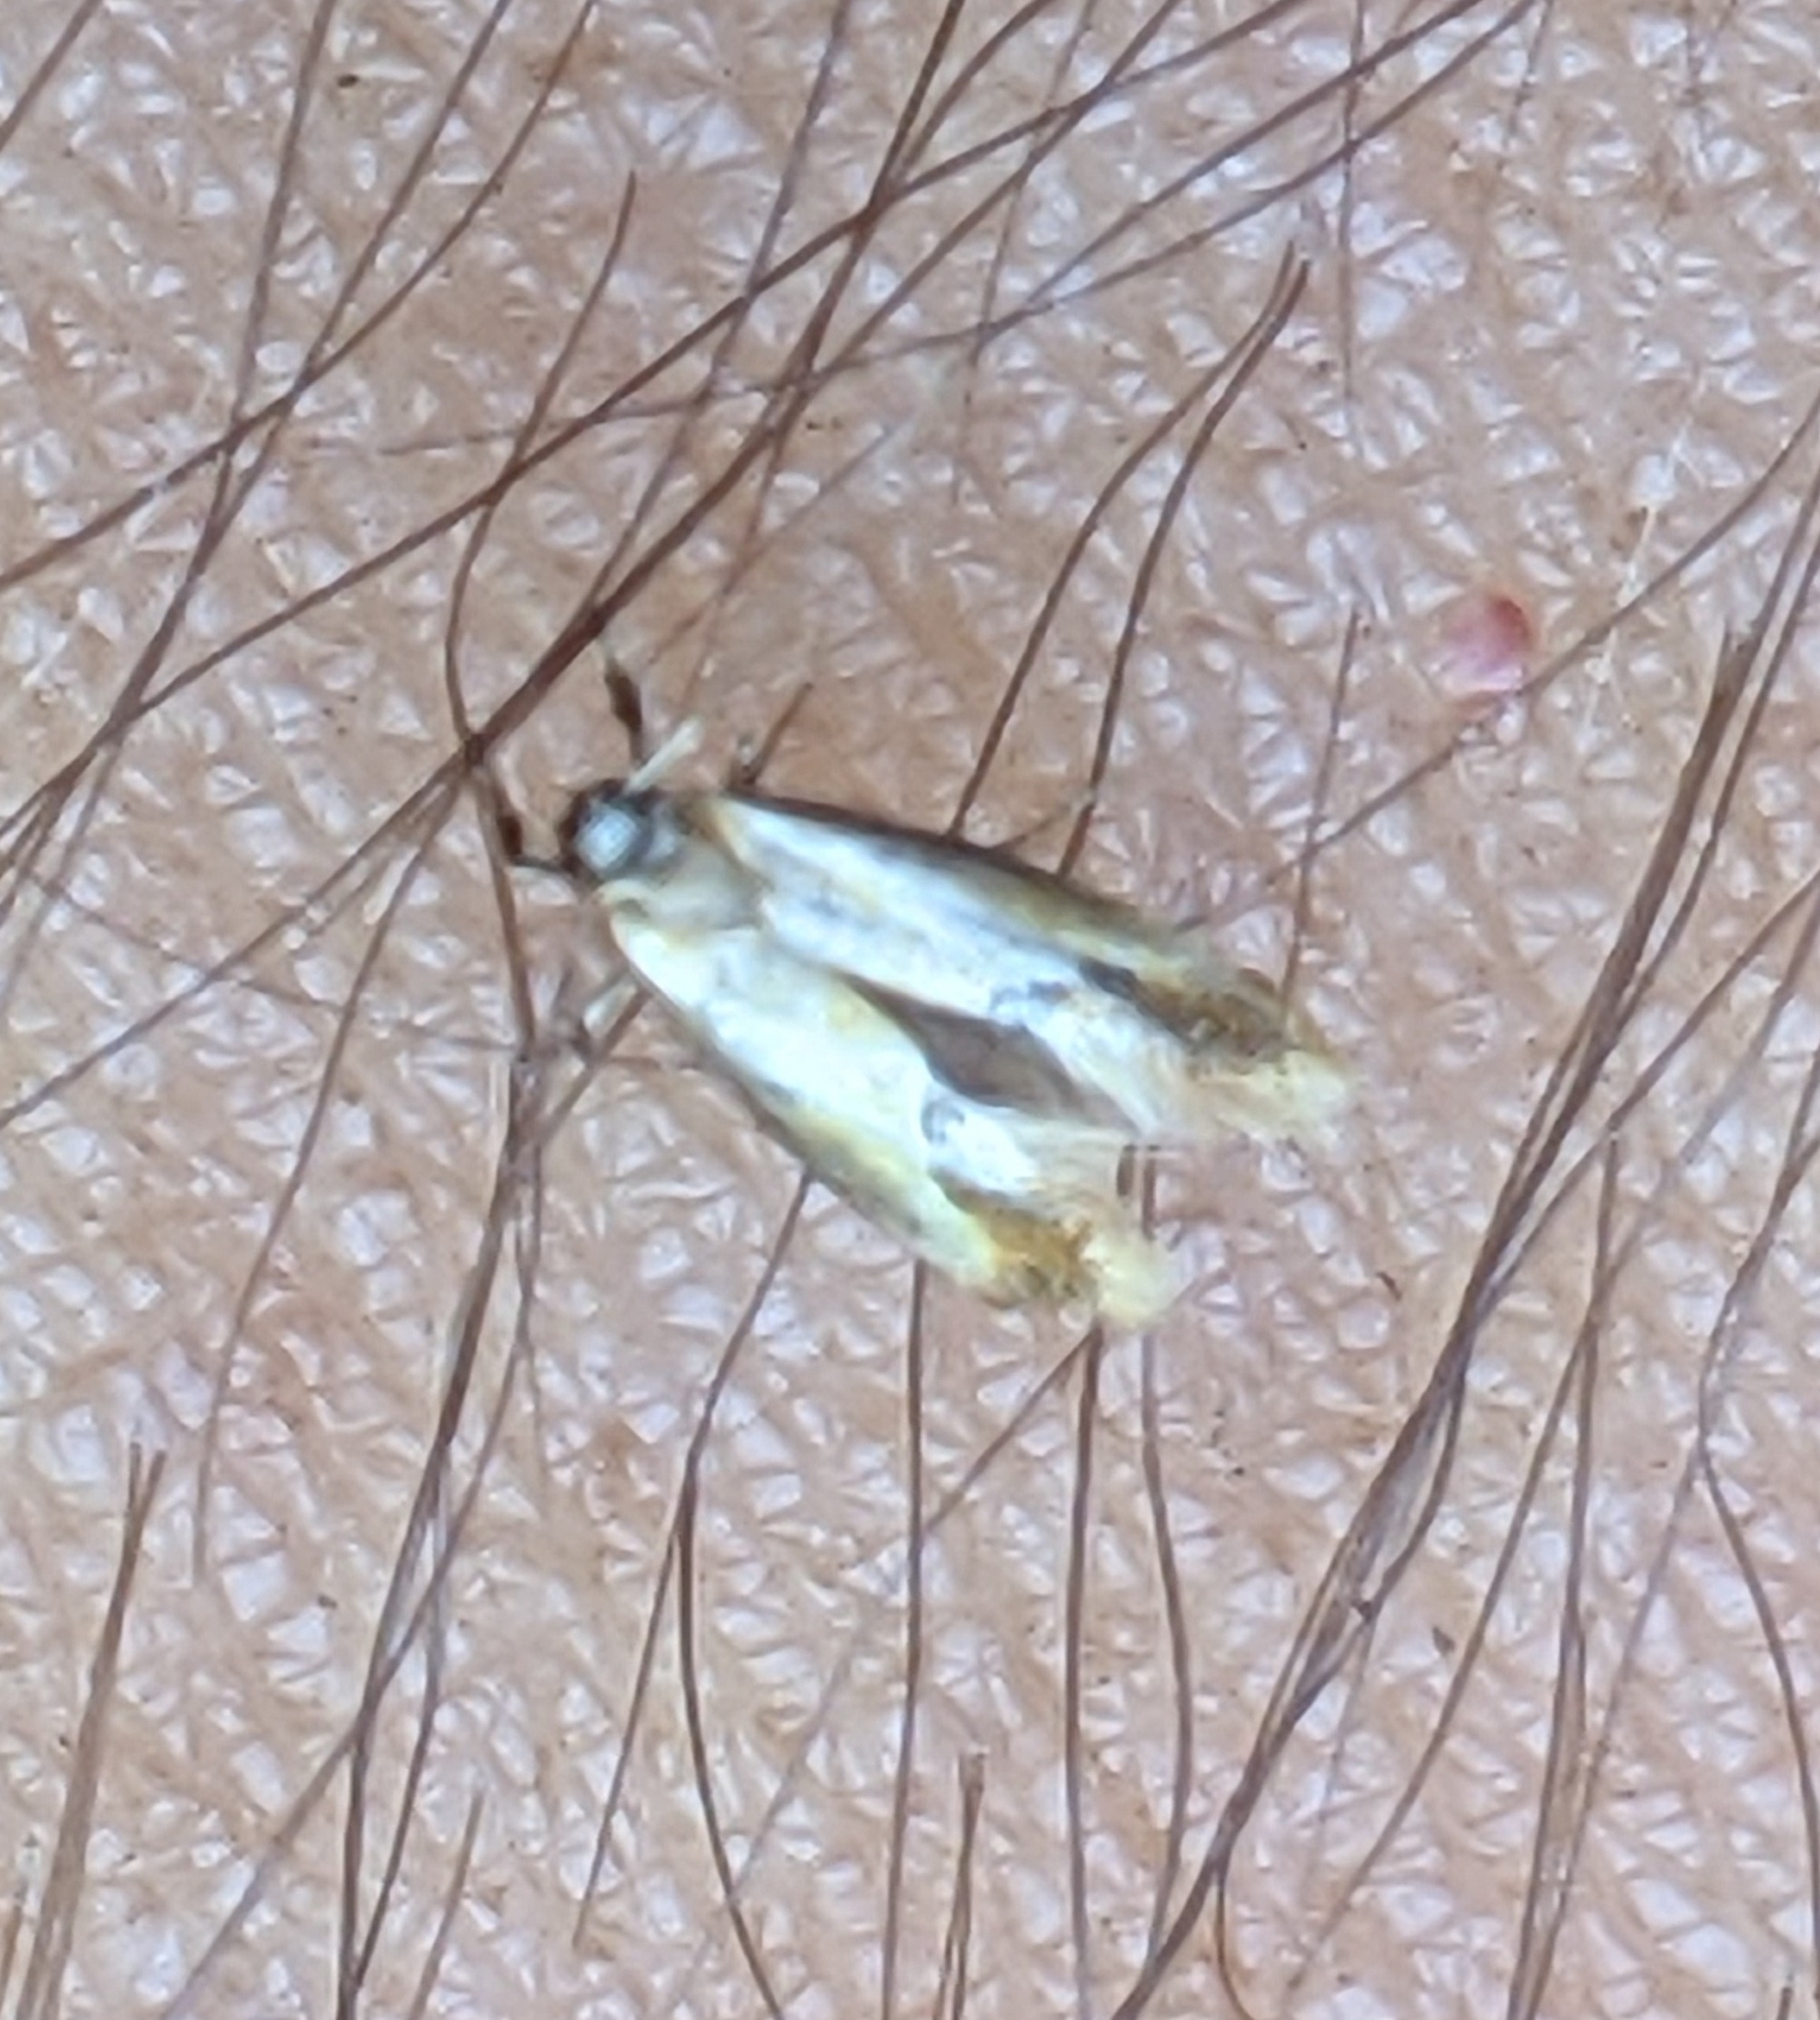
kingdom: Animalia
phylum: Arthropoda
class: Insecta
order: Lepidoptera
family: Oecophoridae
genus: Batia
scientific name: Batia lunaris
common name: Moth
